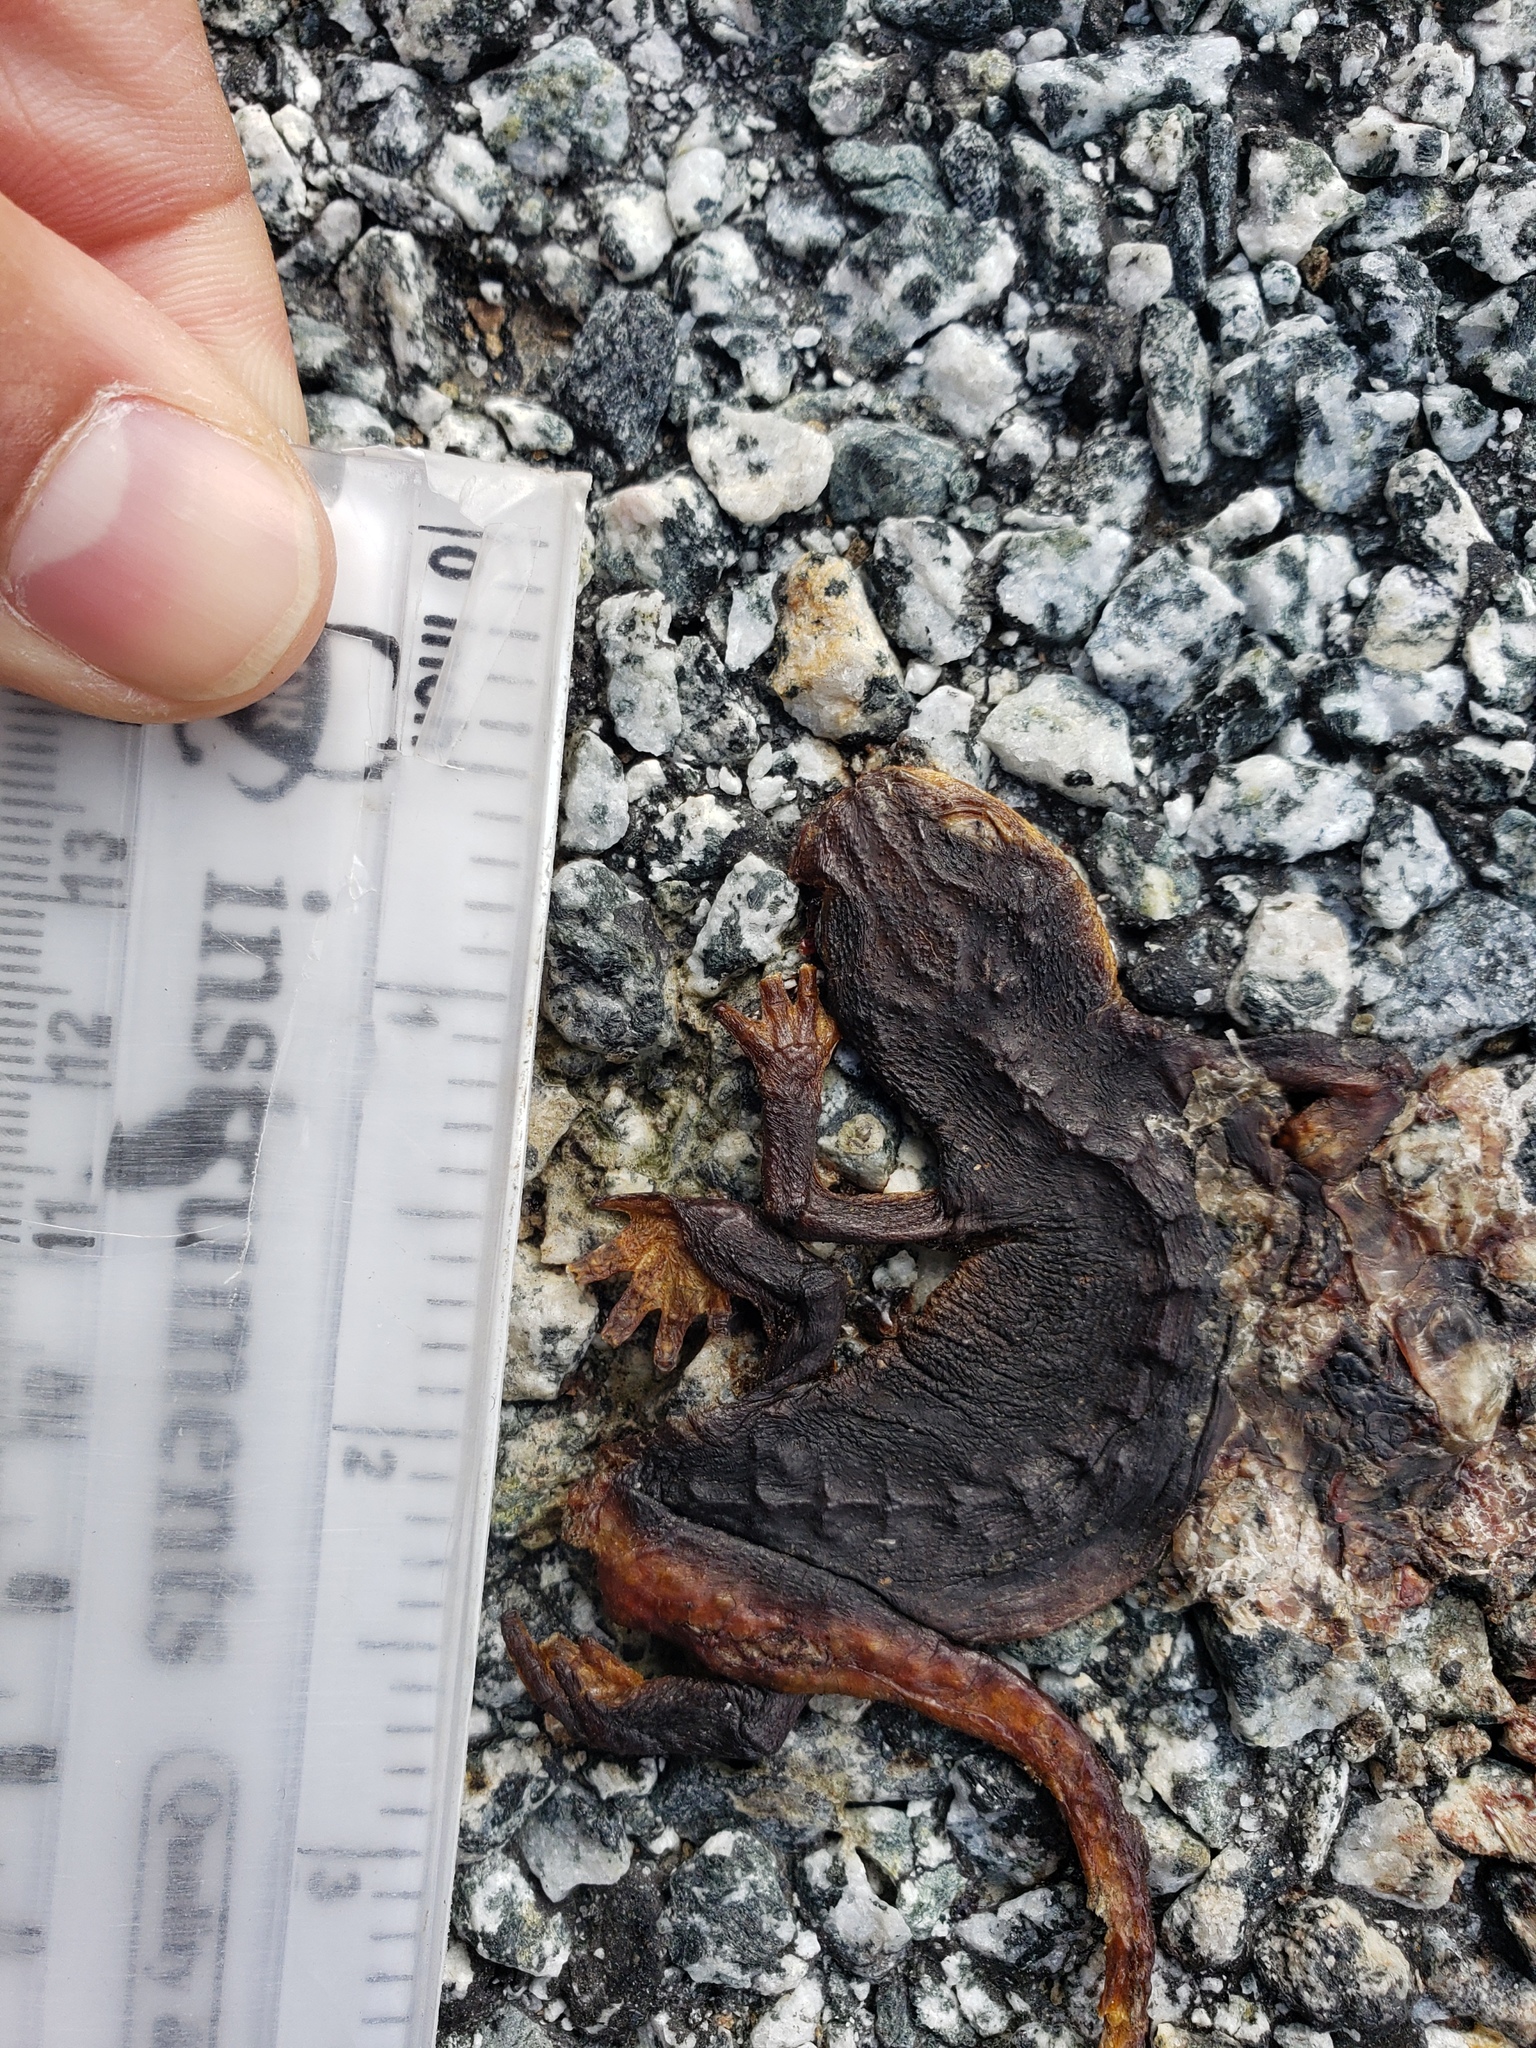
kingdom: Animalia
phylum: Chordata
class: Amphibia
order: Caudata
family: Salamandridae
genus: Taricha
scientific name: Taricha
